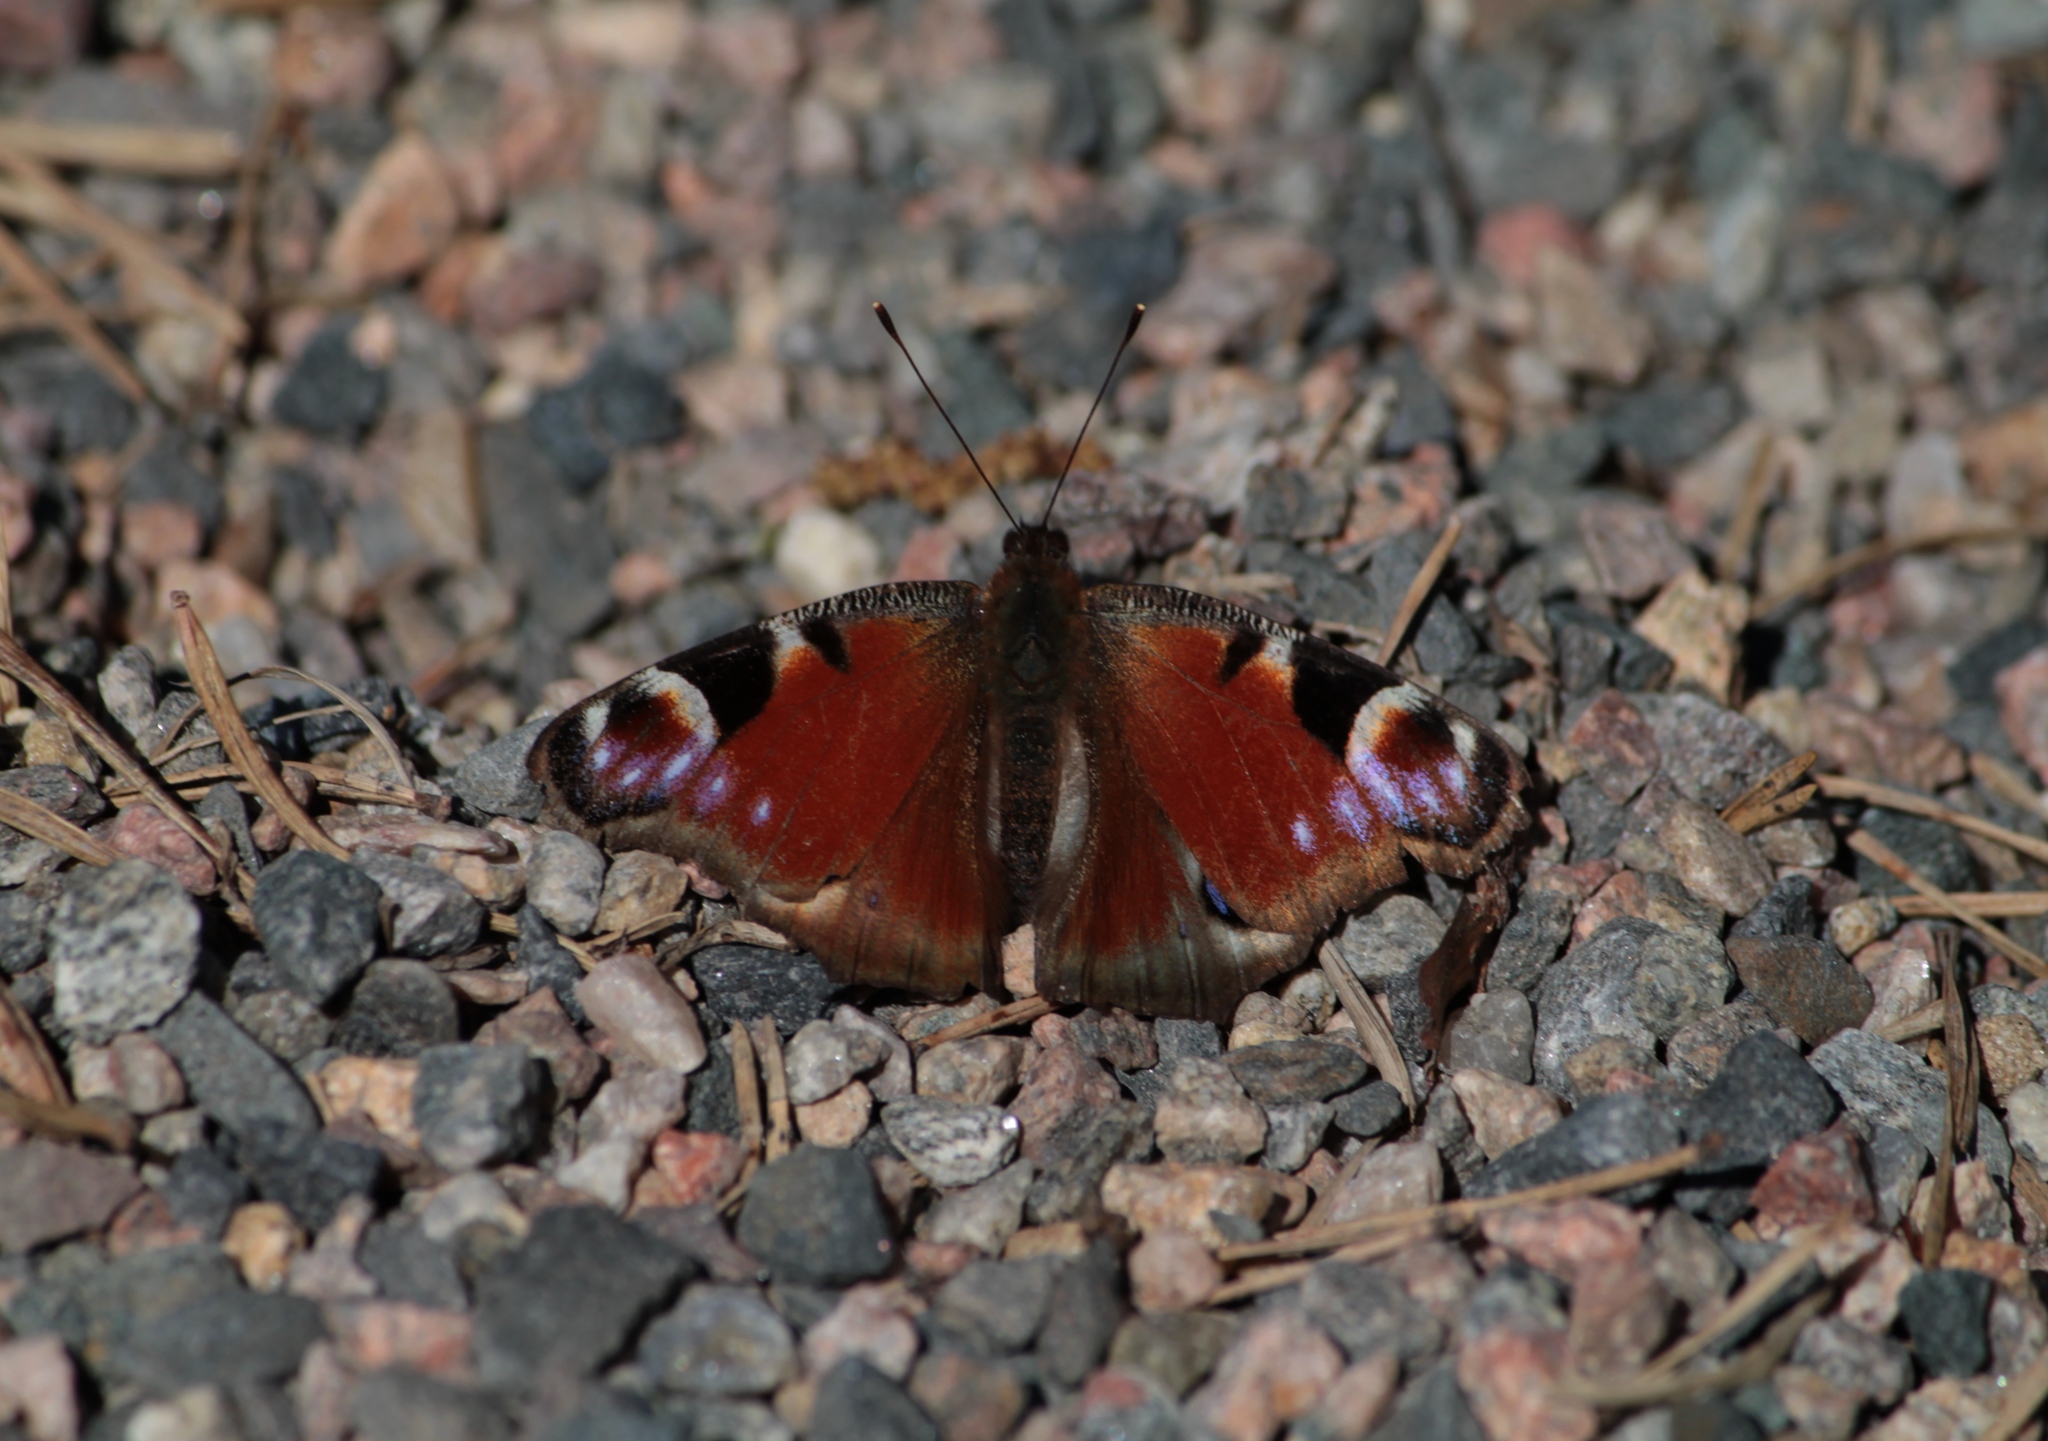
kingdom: Animalia
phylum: Arthropoda
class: Insecta
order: Lepidoptera
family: Nymphalidae
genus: Aglais
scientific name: Aglais io
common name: Peacock
